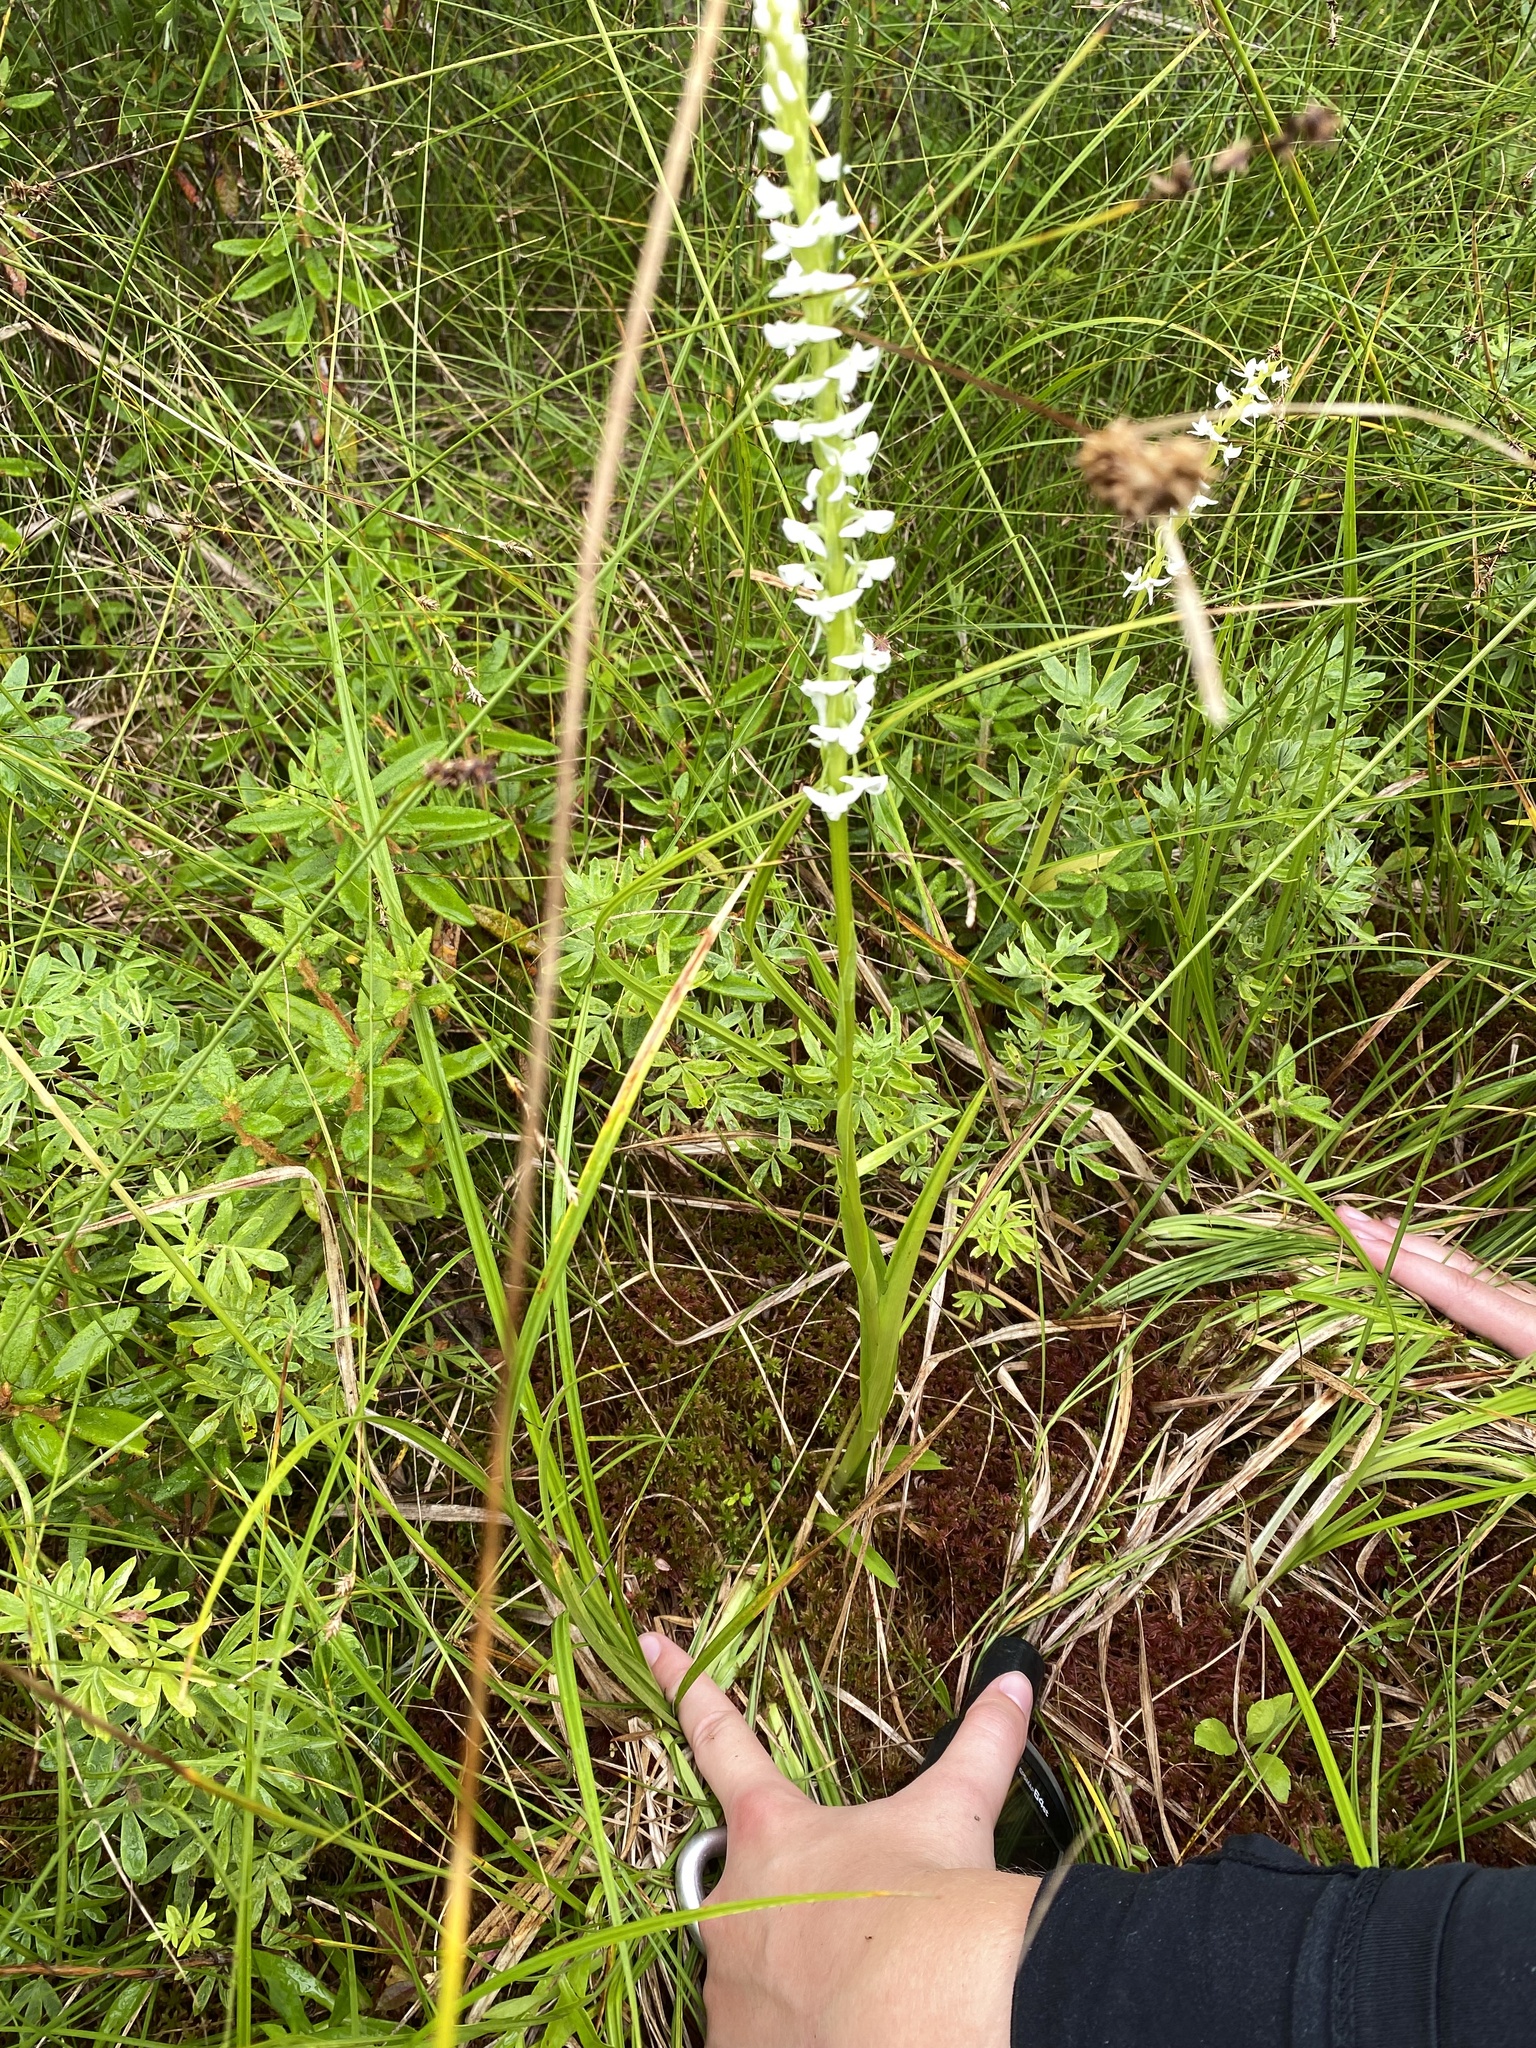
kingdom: Plantae
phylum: Tracheophyta
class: Liliopsida
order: Asparagales
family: Orchidaceae
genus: Platanthera
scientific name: Platanthera dilatata
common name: Bog candles
